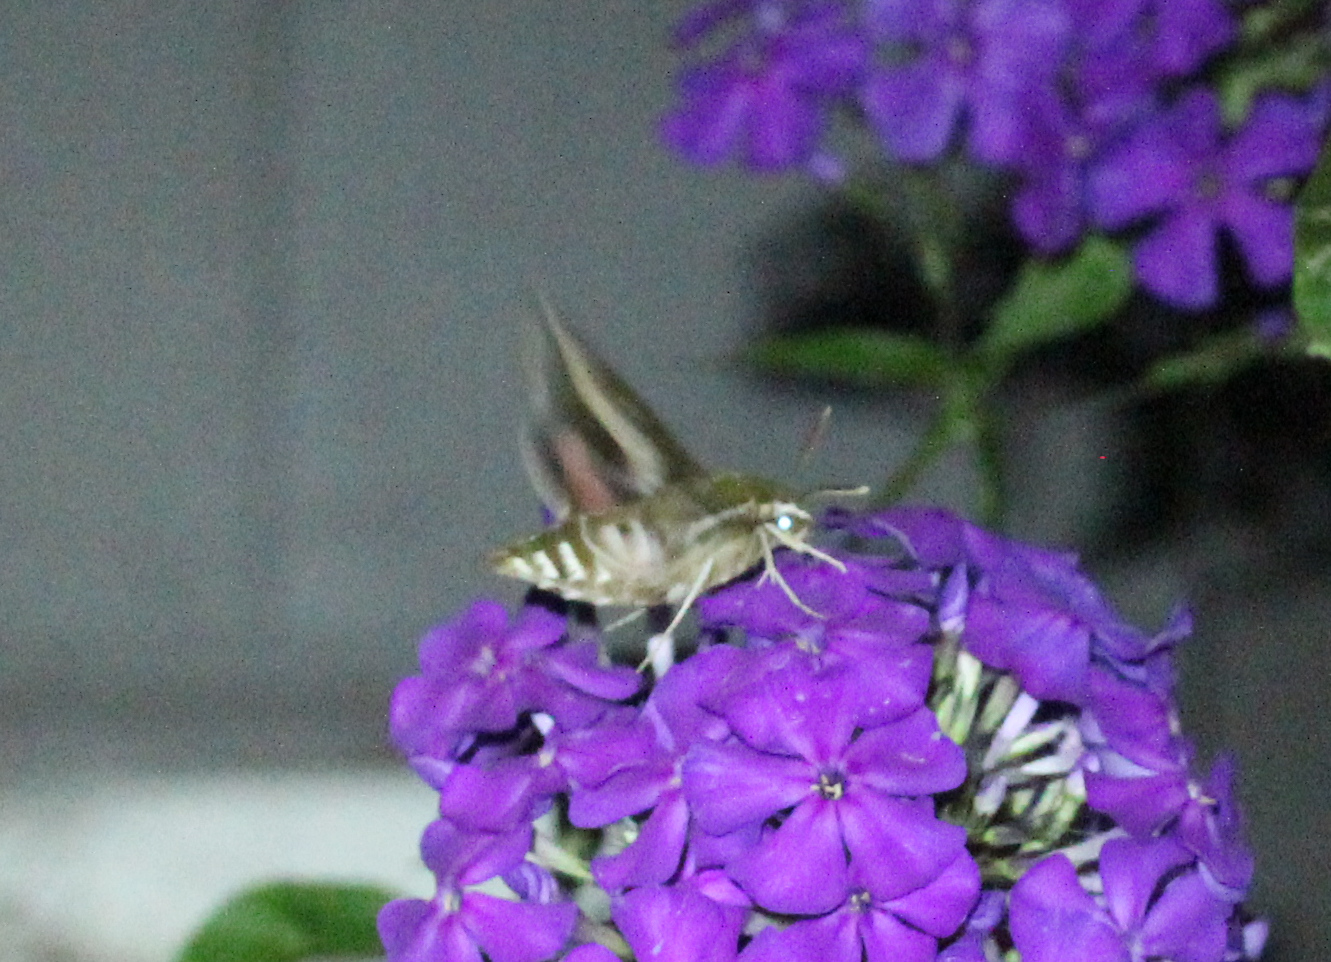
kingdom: Animalia
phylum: Arthropoda
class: Insecta
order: Lepidoptera
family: Sphingidae
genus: Hyles
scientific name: Hyles gallii
